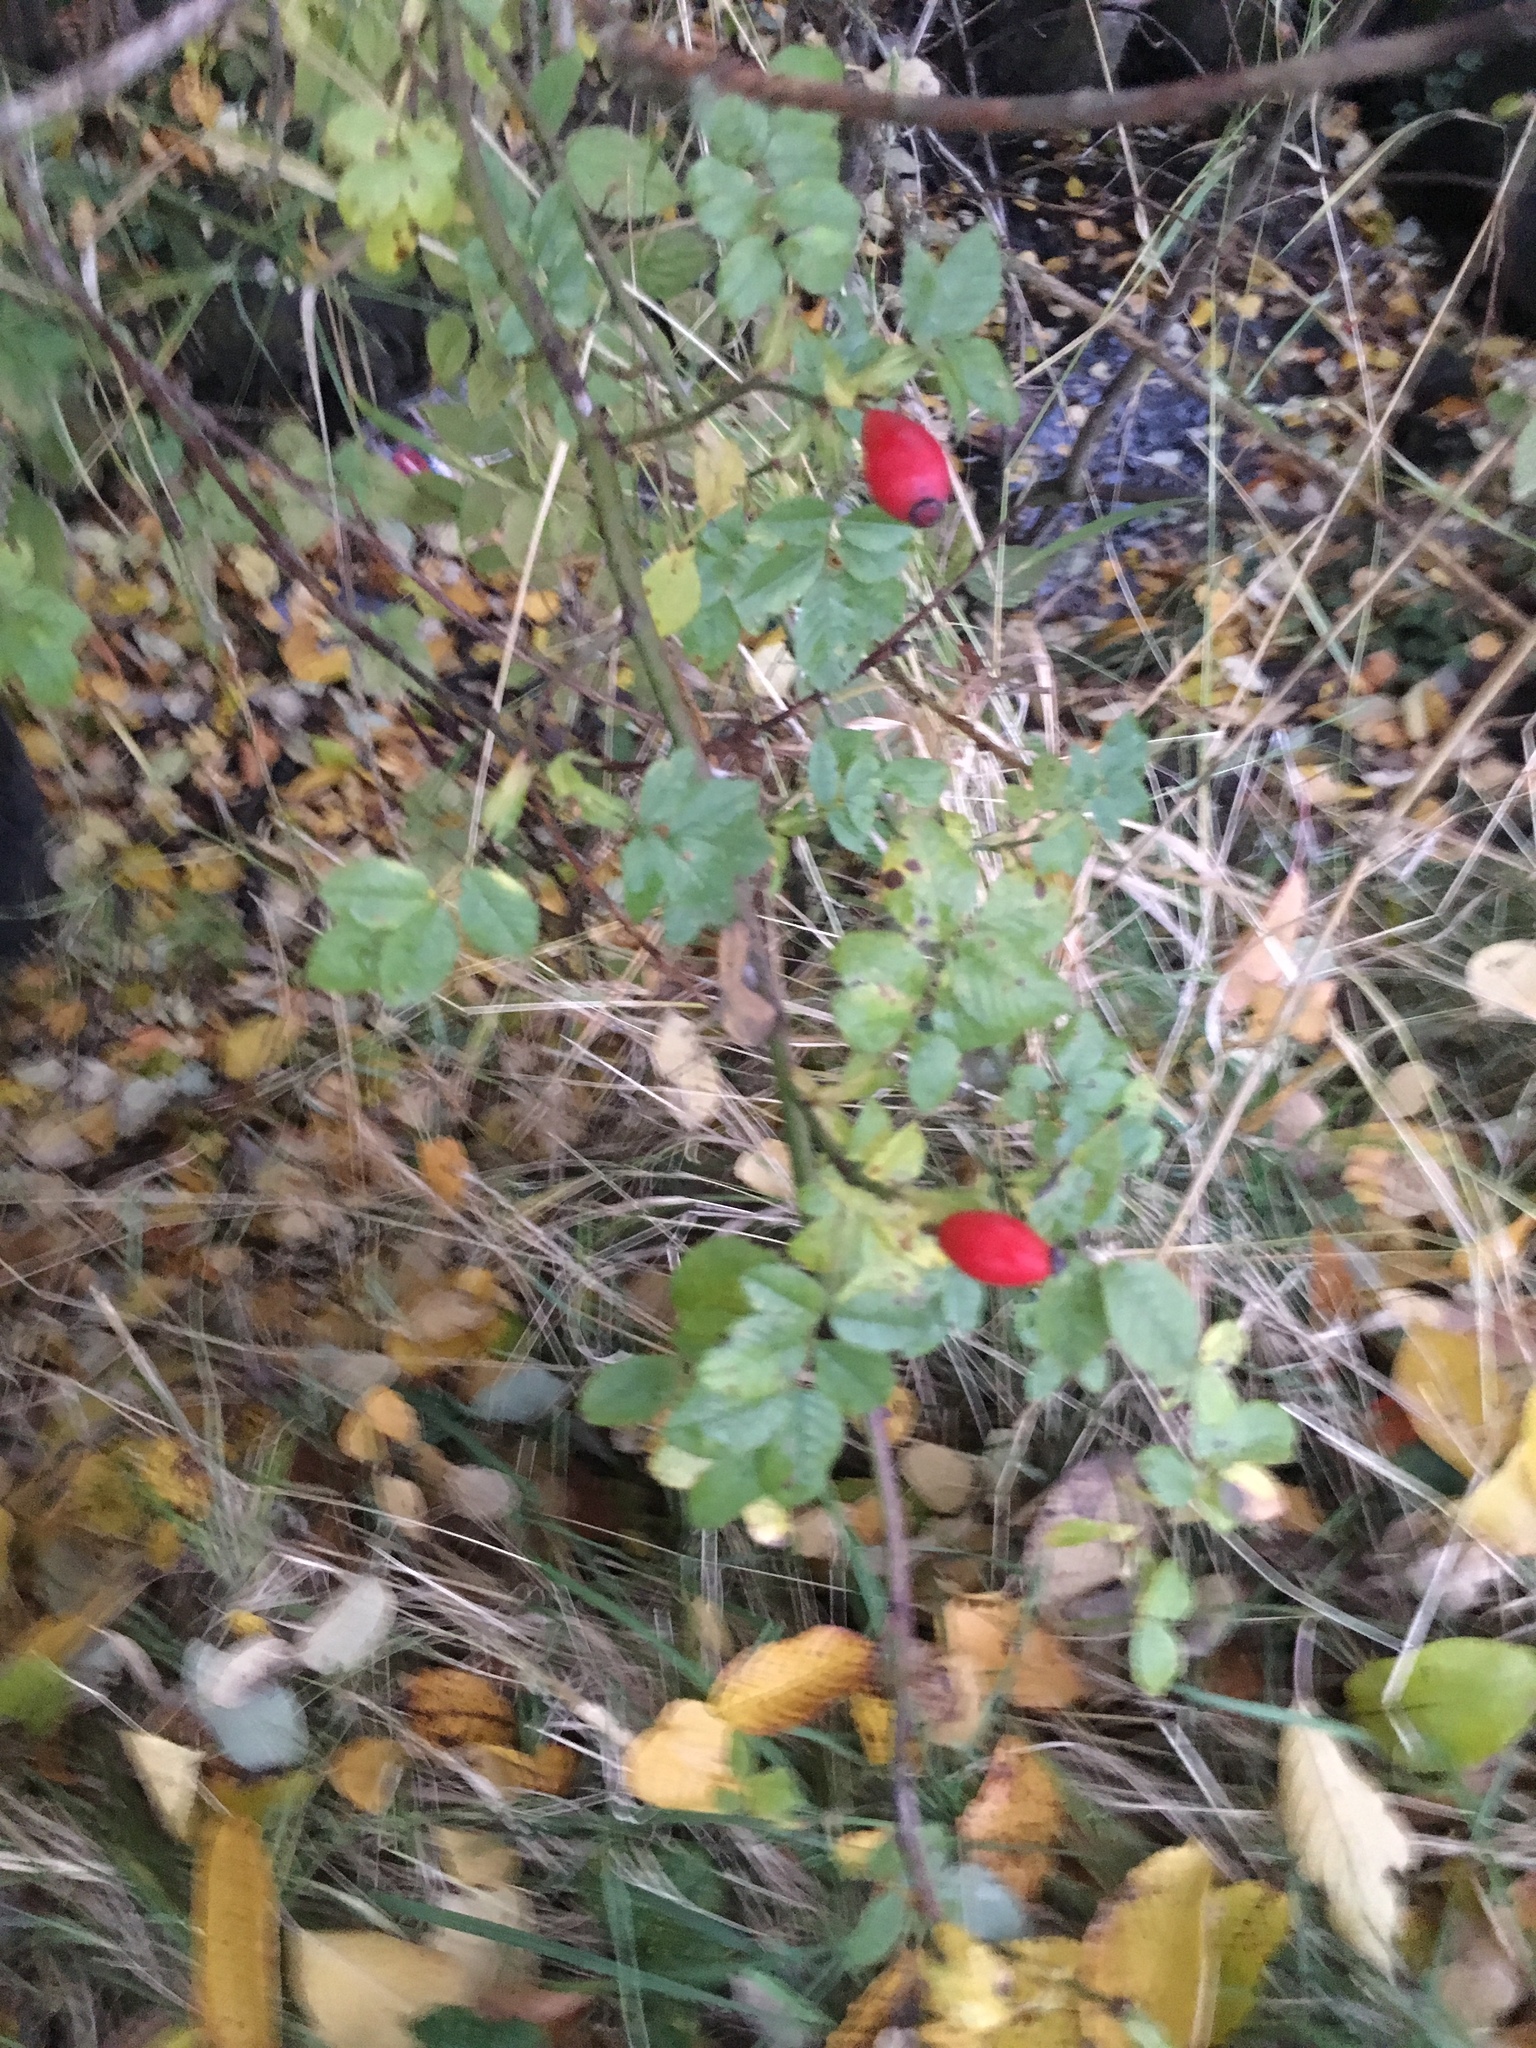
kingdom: Plantae
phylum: Tracheophyta
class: Magnoliopsida
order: Rosales
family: Rosaceae
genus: Rosa
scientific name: Rosa canina
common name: Dog rose
